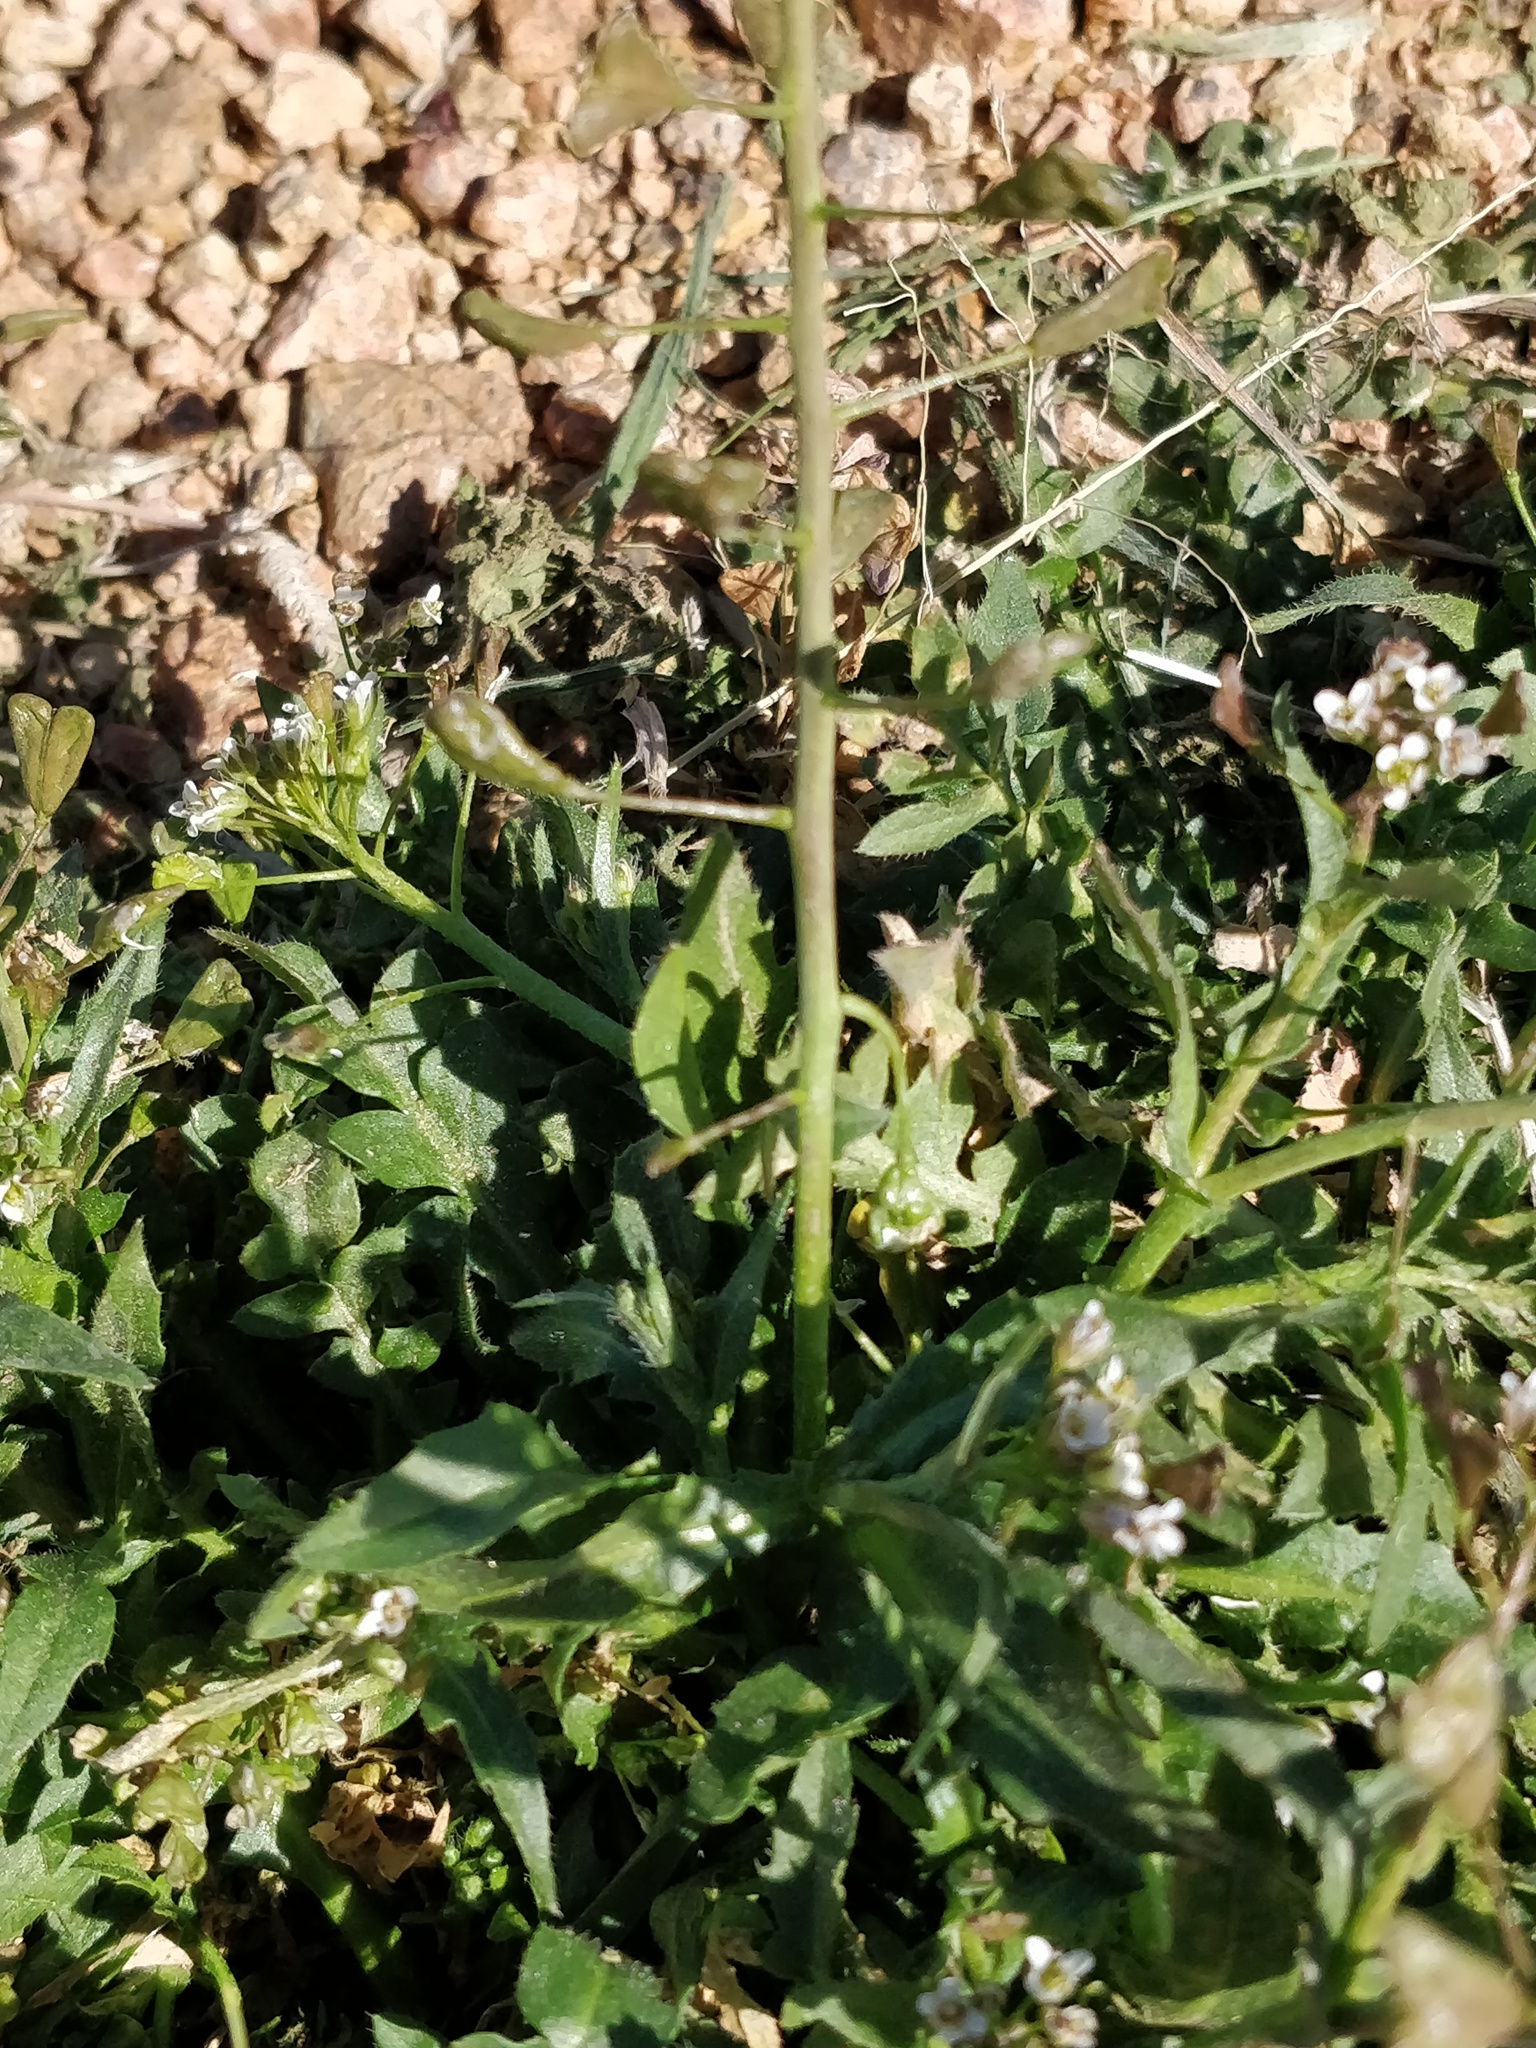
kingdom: Plantae
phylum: Tracheophyta
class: Magnoliopsida
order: Brassicales
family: Brassicaceae
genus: Capsella
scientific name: Capsella bursa-pastoris
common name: Shepherd's purse
